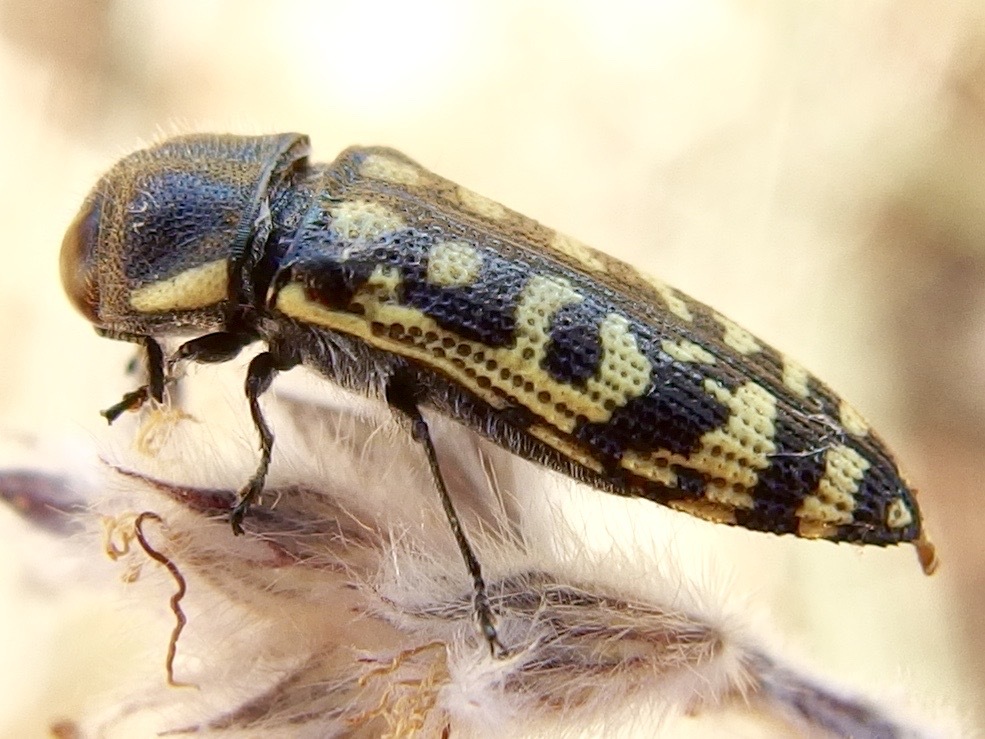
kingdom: Animalia
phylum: Arthropoda
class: Insecta
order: Coleoptera
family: Buprestidae
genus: Acmaeodera
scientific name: Acmaeodera solitaria
